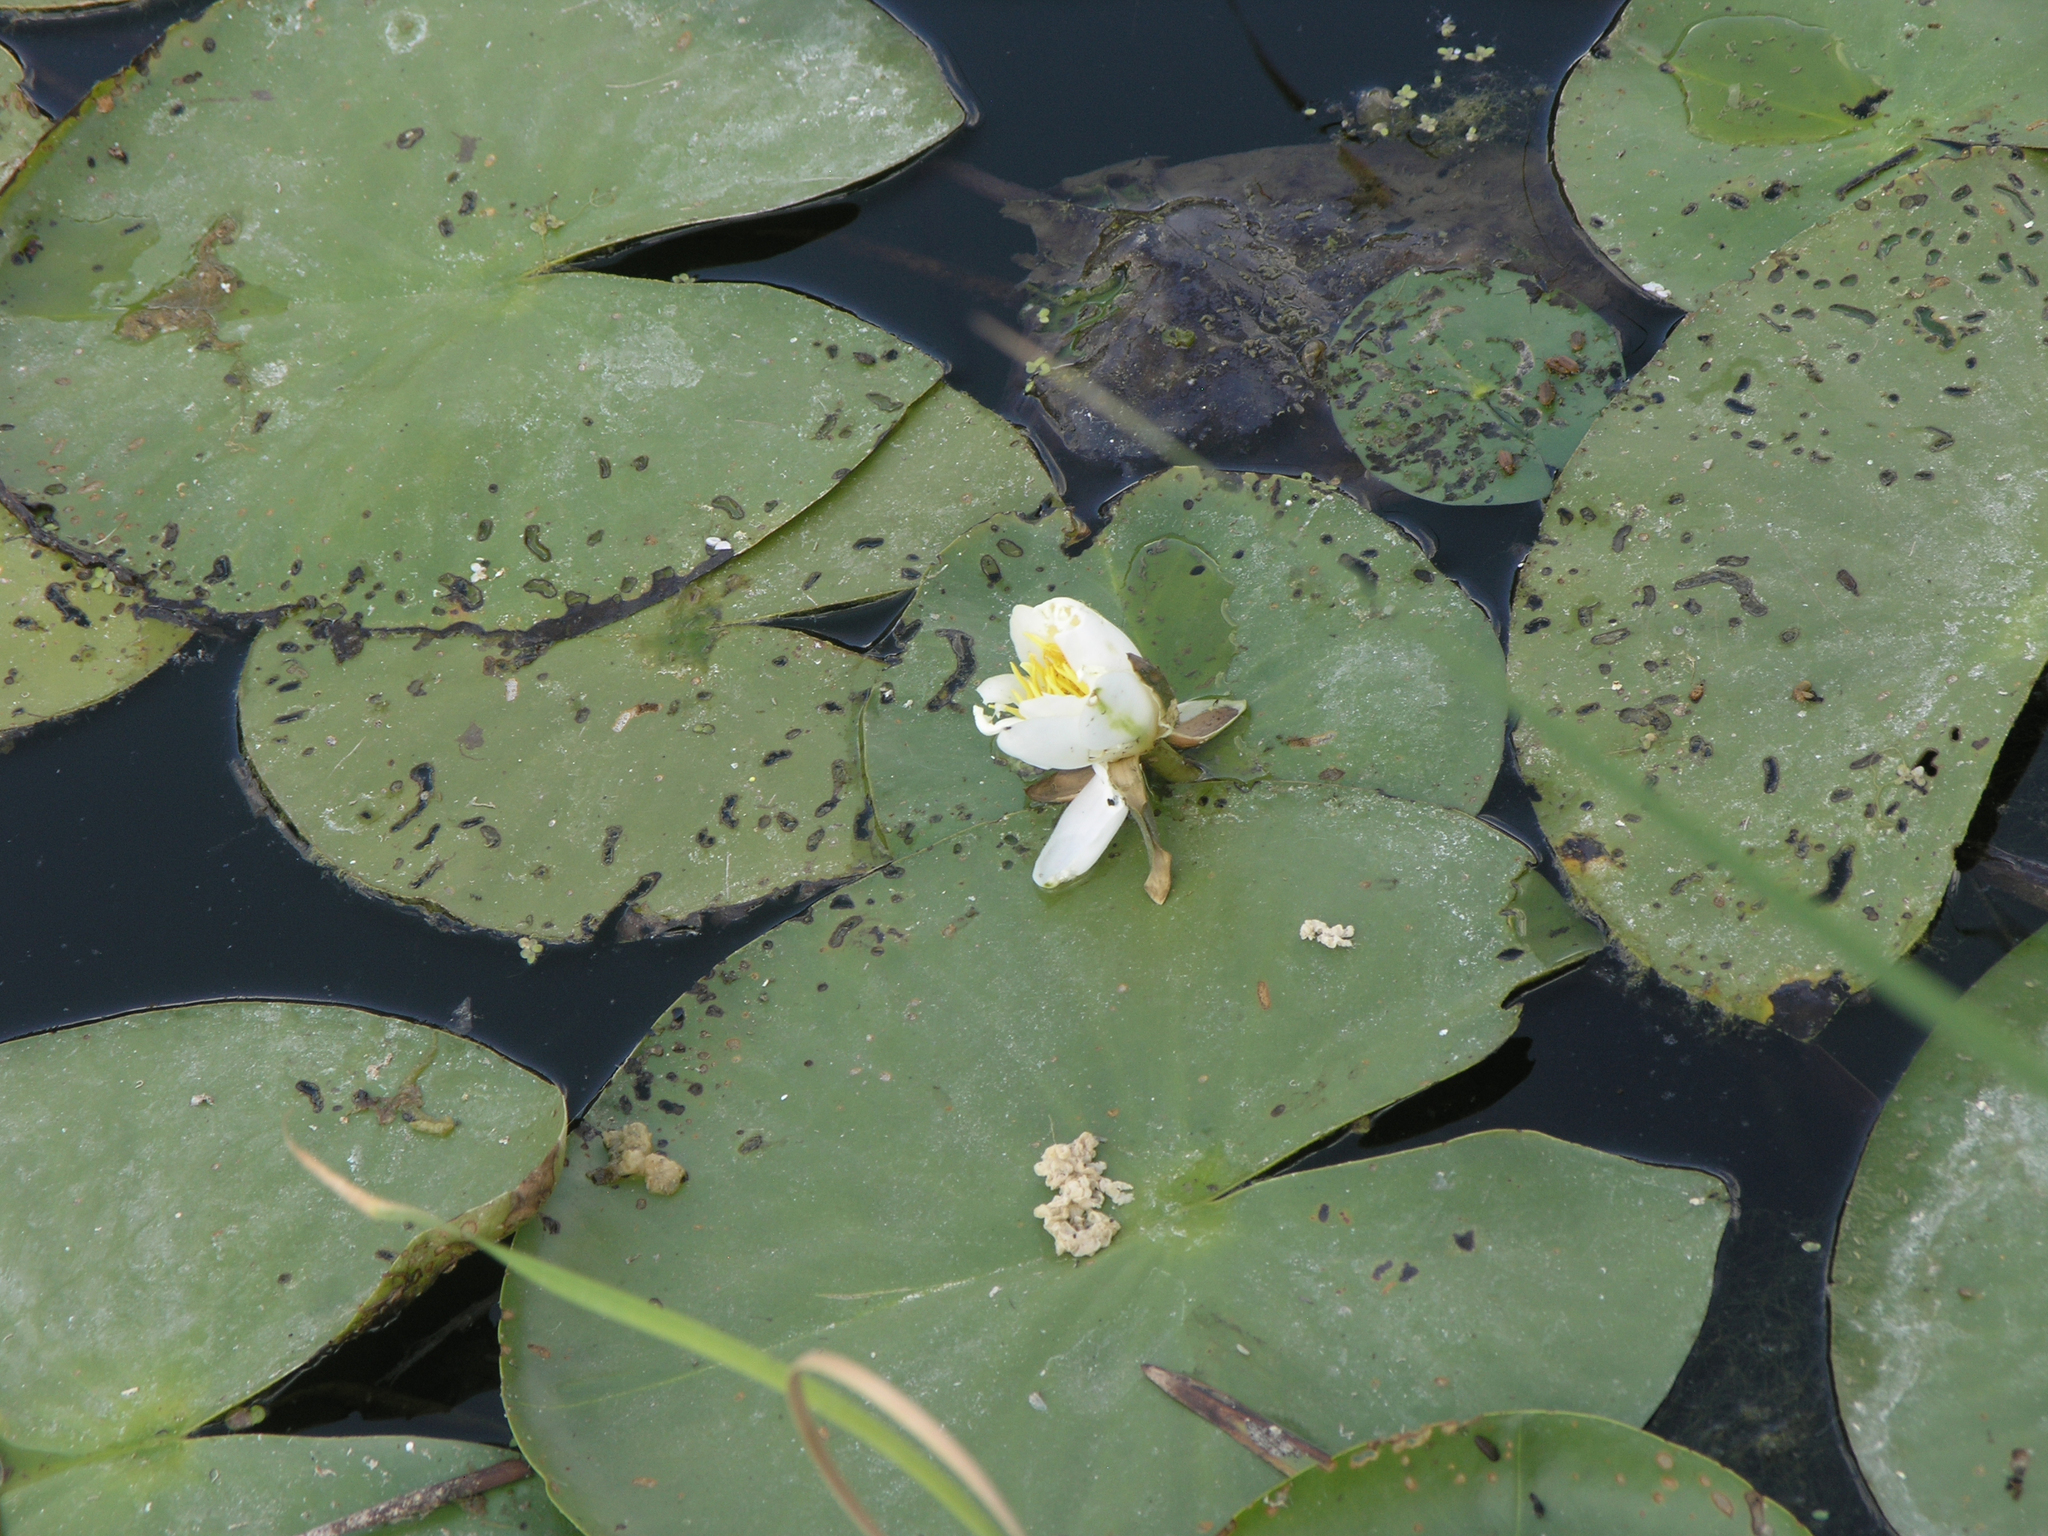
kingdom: Plantae
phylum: Tracheophyta
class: Magnoliopsida
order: Nymphaeales
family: Nymphaeaceae
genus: Nymphaea
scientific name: Nymphaea candida
